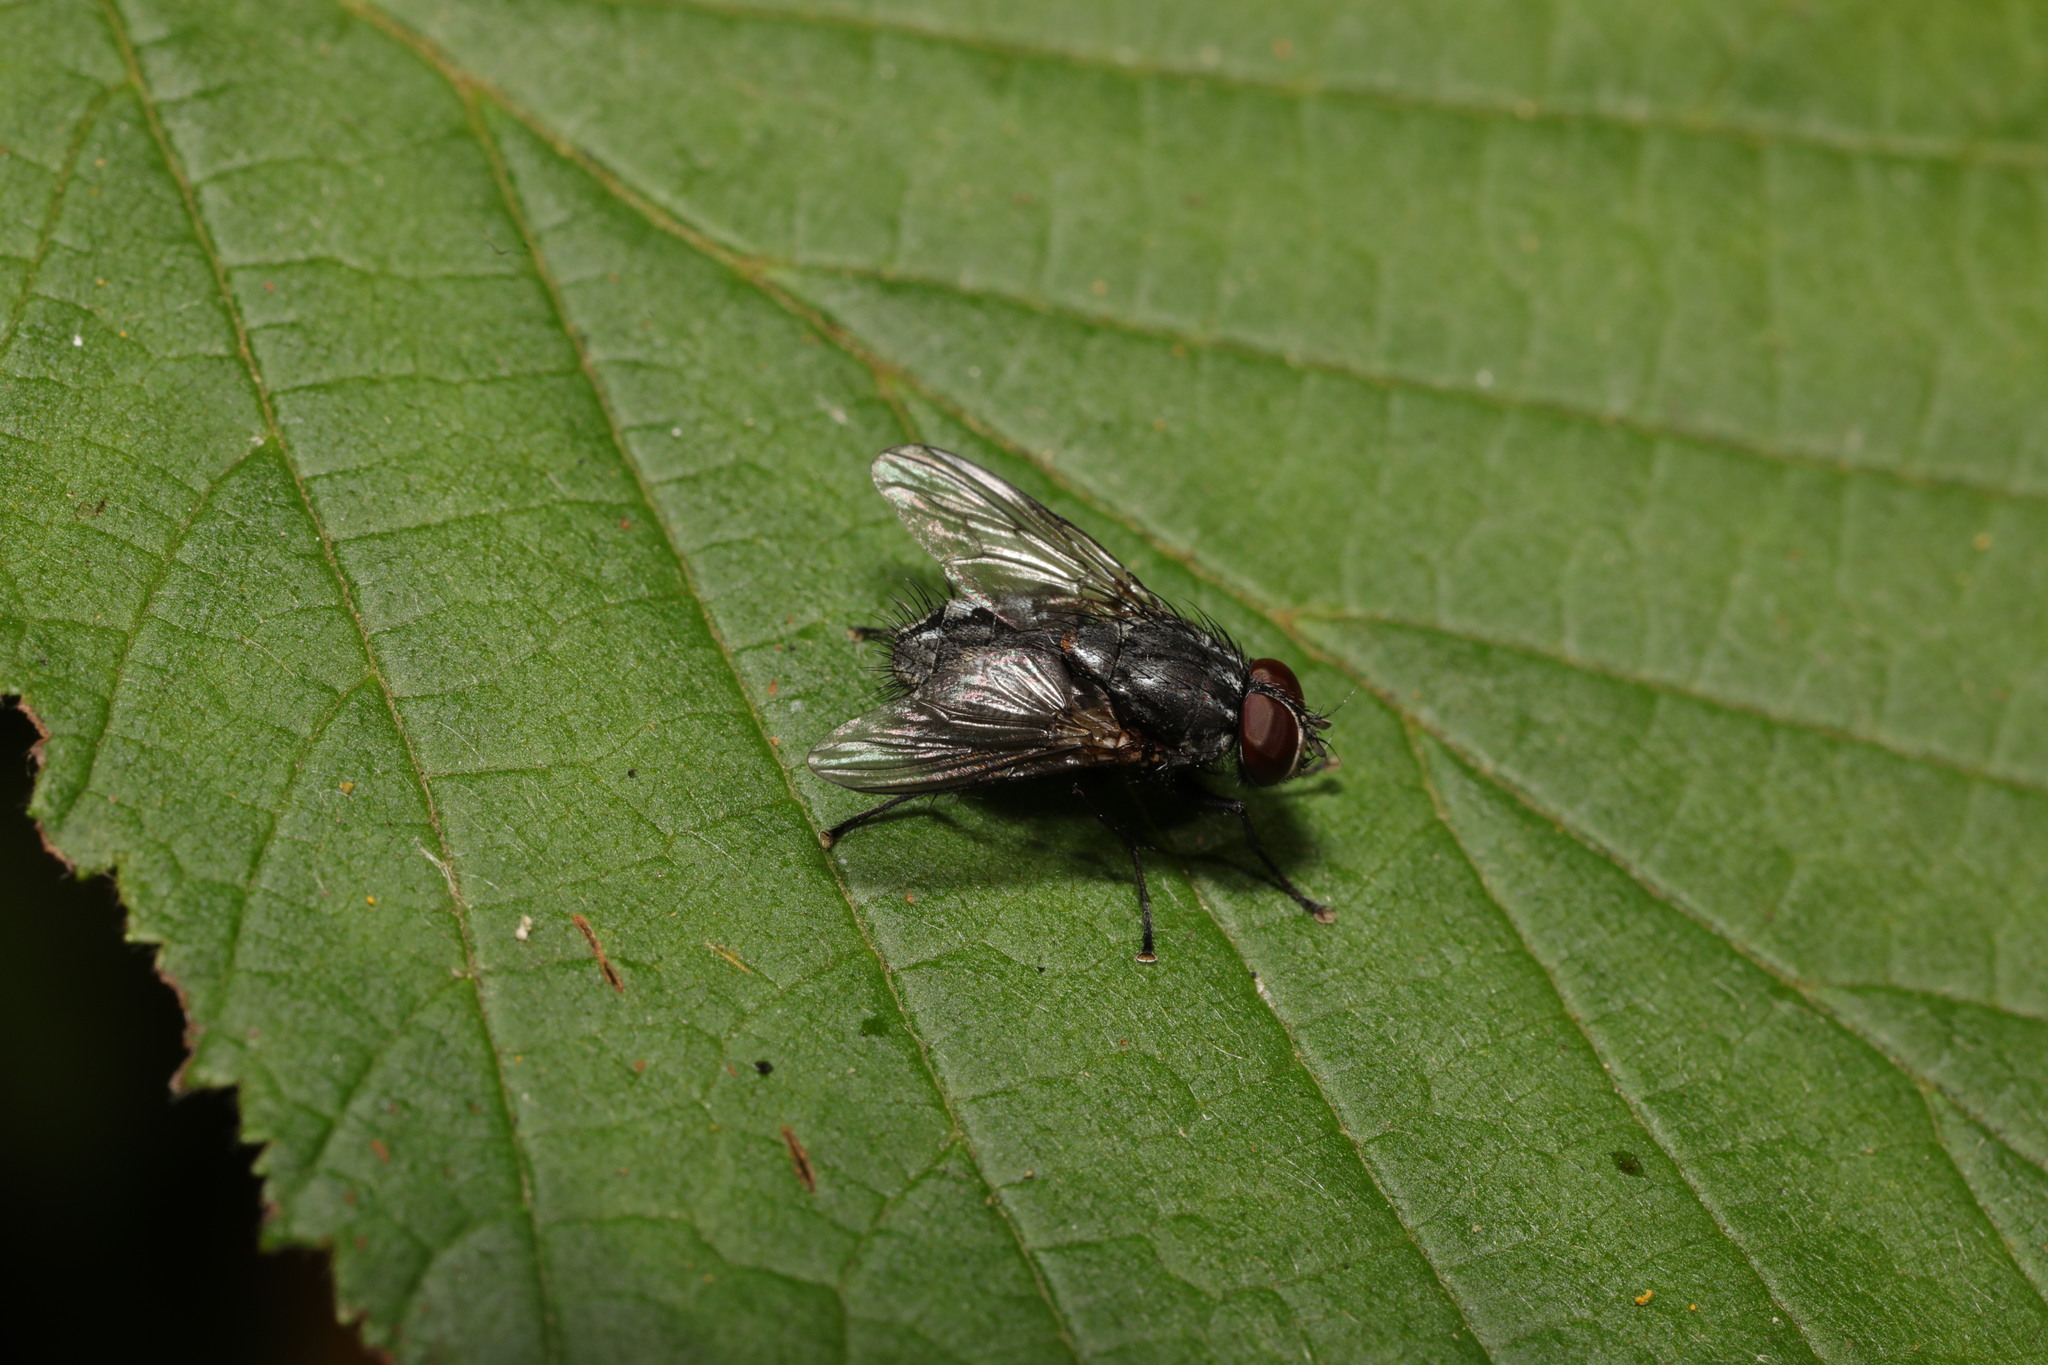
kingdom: Animalia
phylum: Arthropoda
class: Insecta
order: Diptera
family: Muscidae
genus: Muscina
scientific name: Muscina levida
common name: House fly
